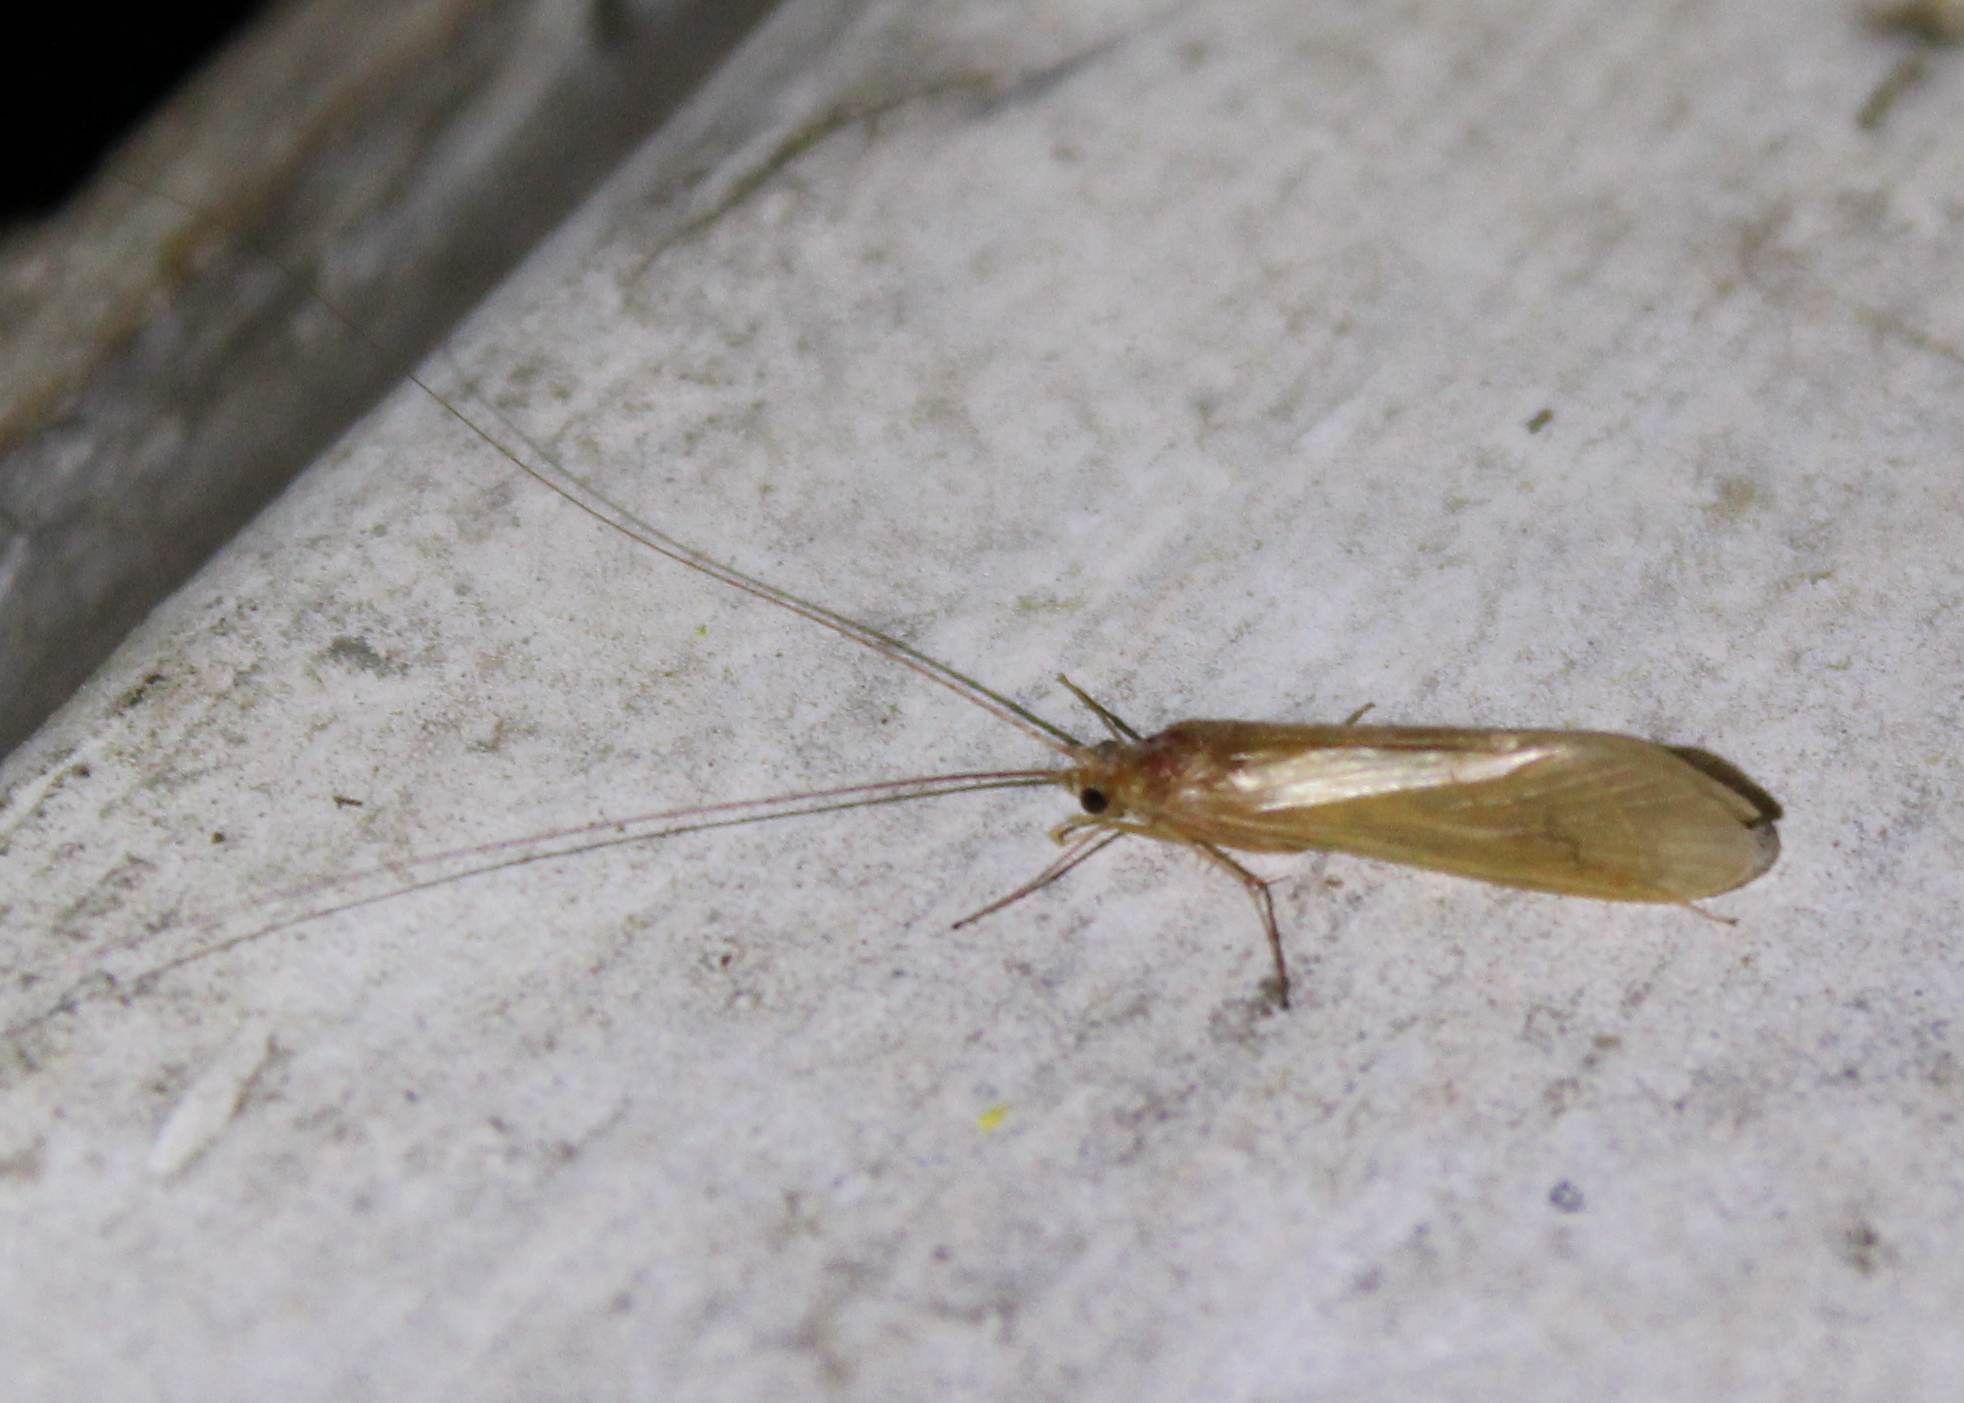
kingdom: Animalia
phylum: Arthropoda
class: Insecta
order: Trichoptera
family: Hydropsychidae
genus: Potamyia
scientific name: Potamyia flava
